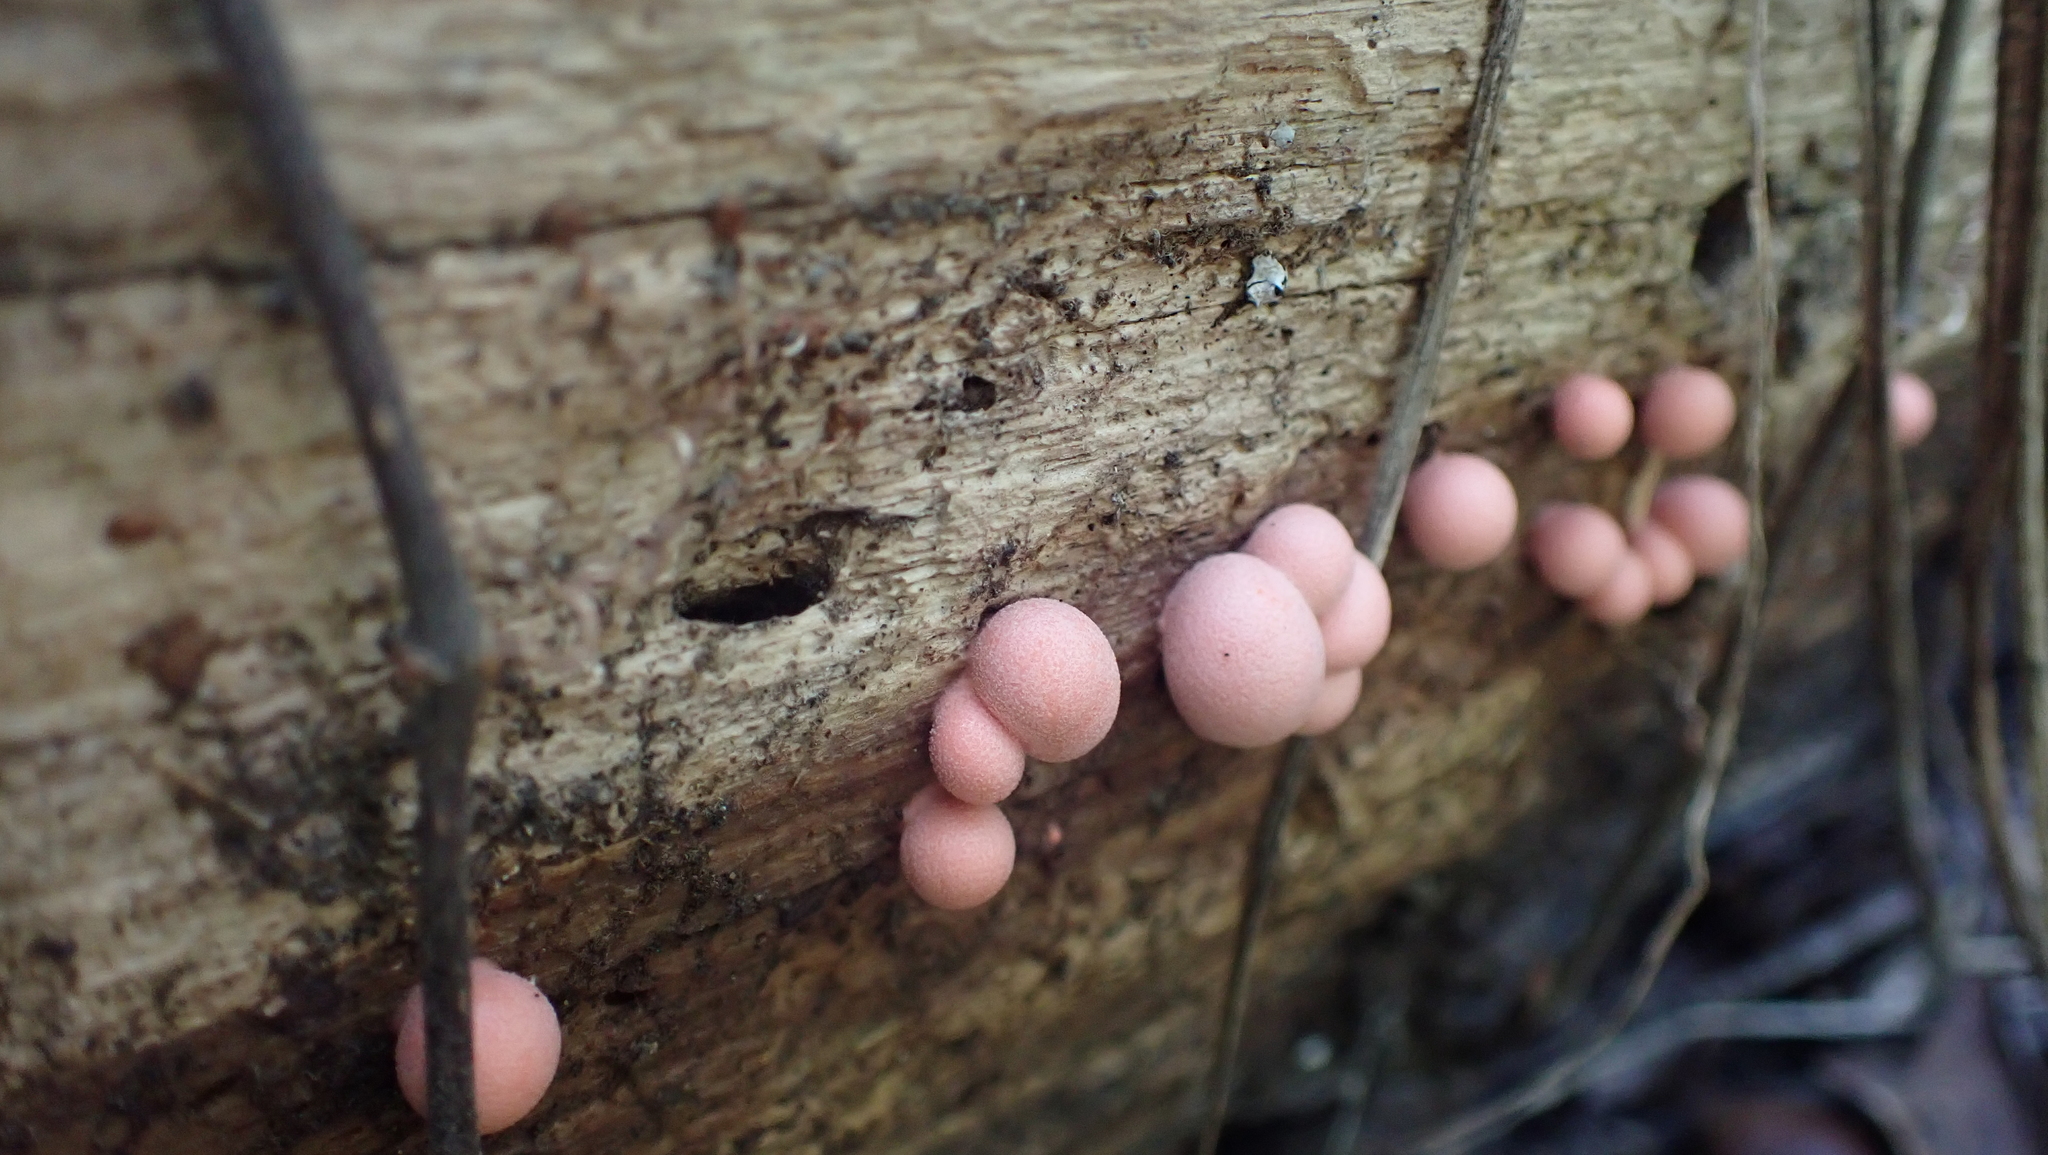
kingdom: Protozoa
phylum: Mycetozoa
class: Myxomycetes
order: Cribrariales
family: Tubiferaceae
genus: Lycogala
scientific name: Lycogala epidendrum
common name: Wolf's milk
